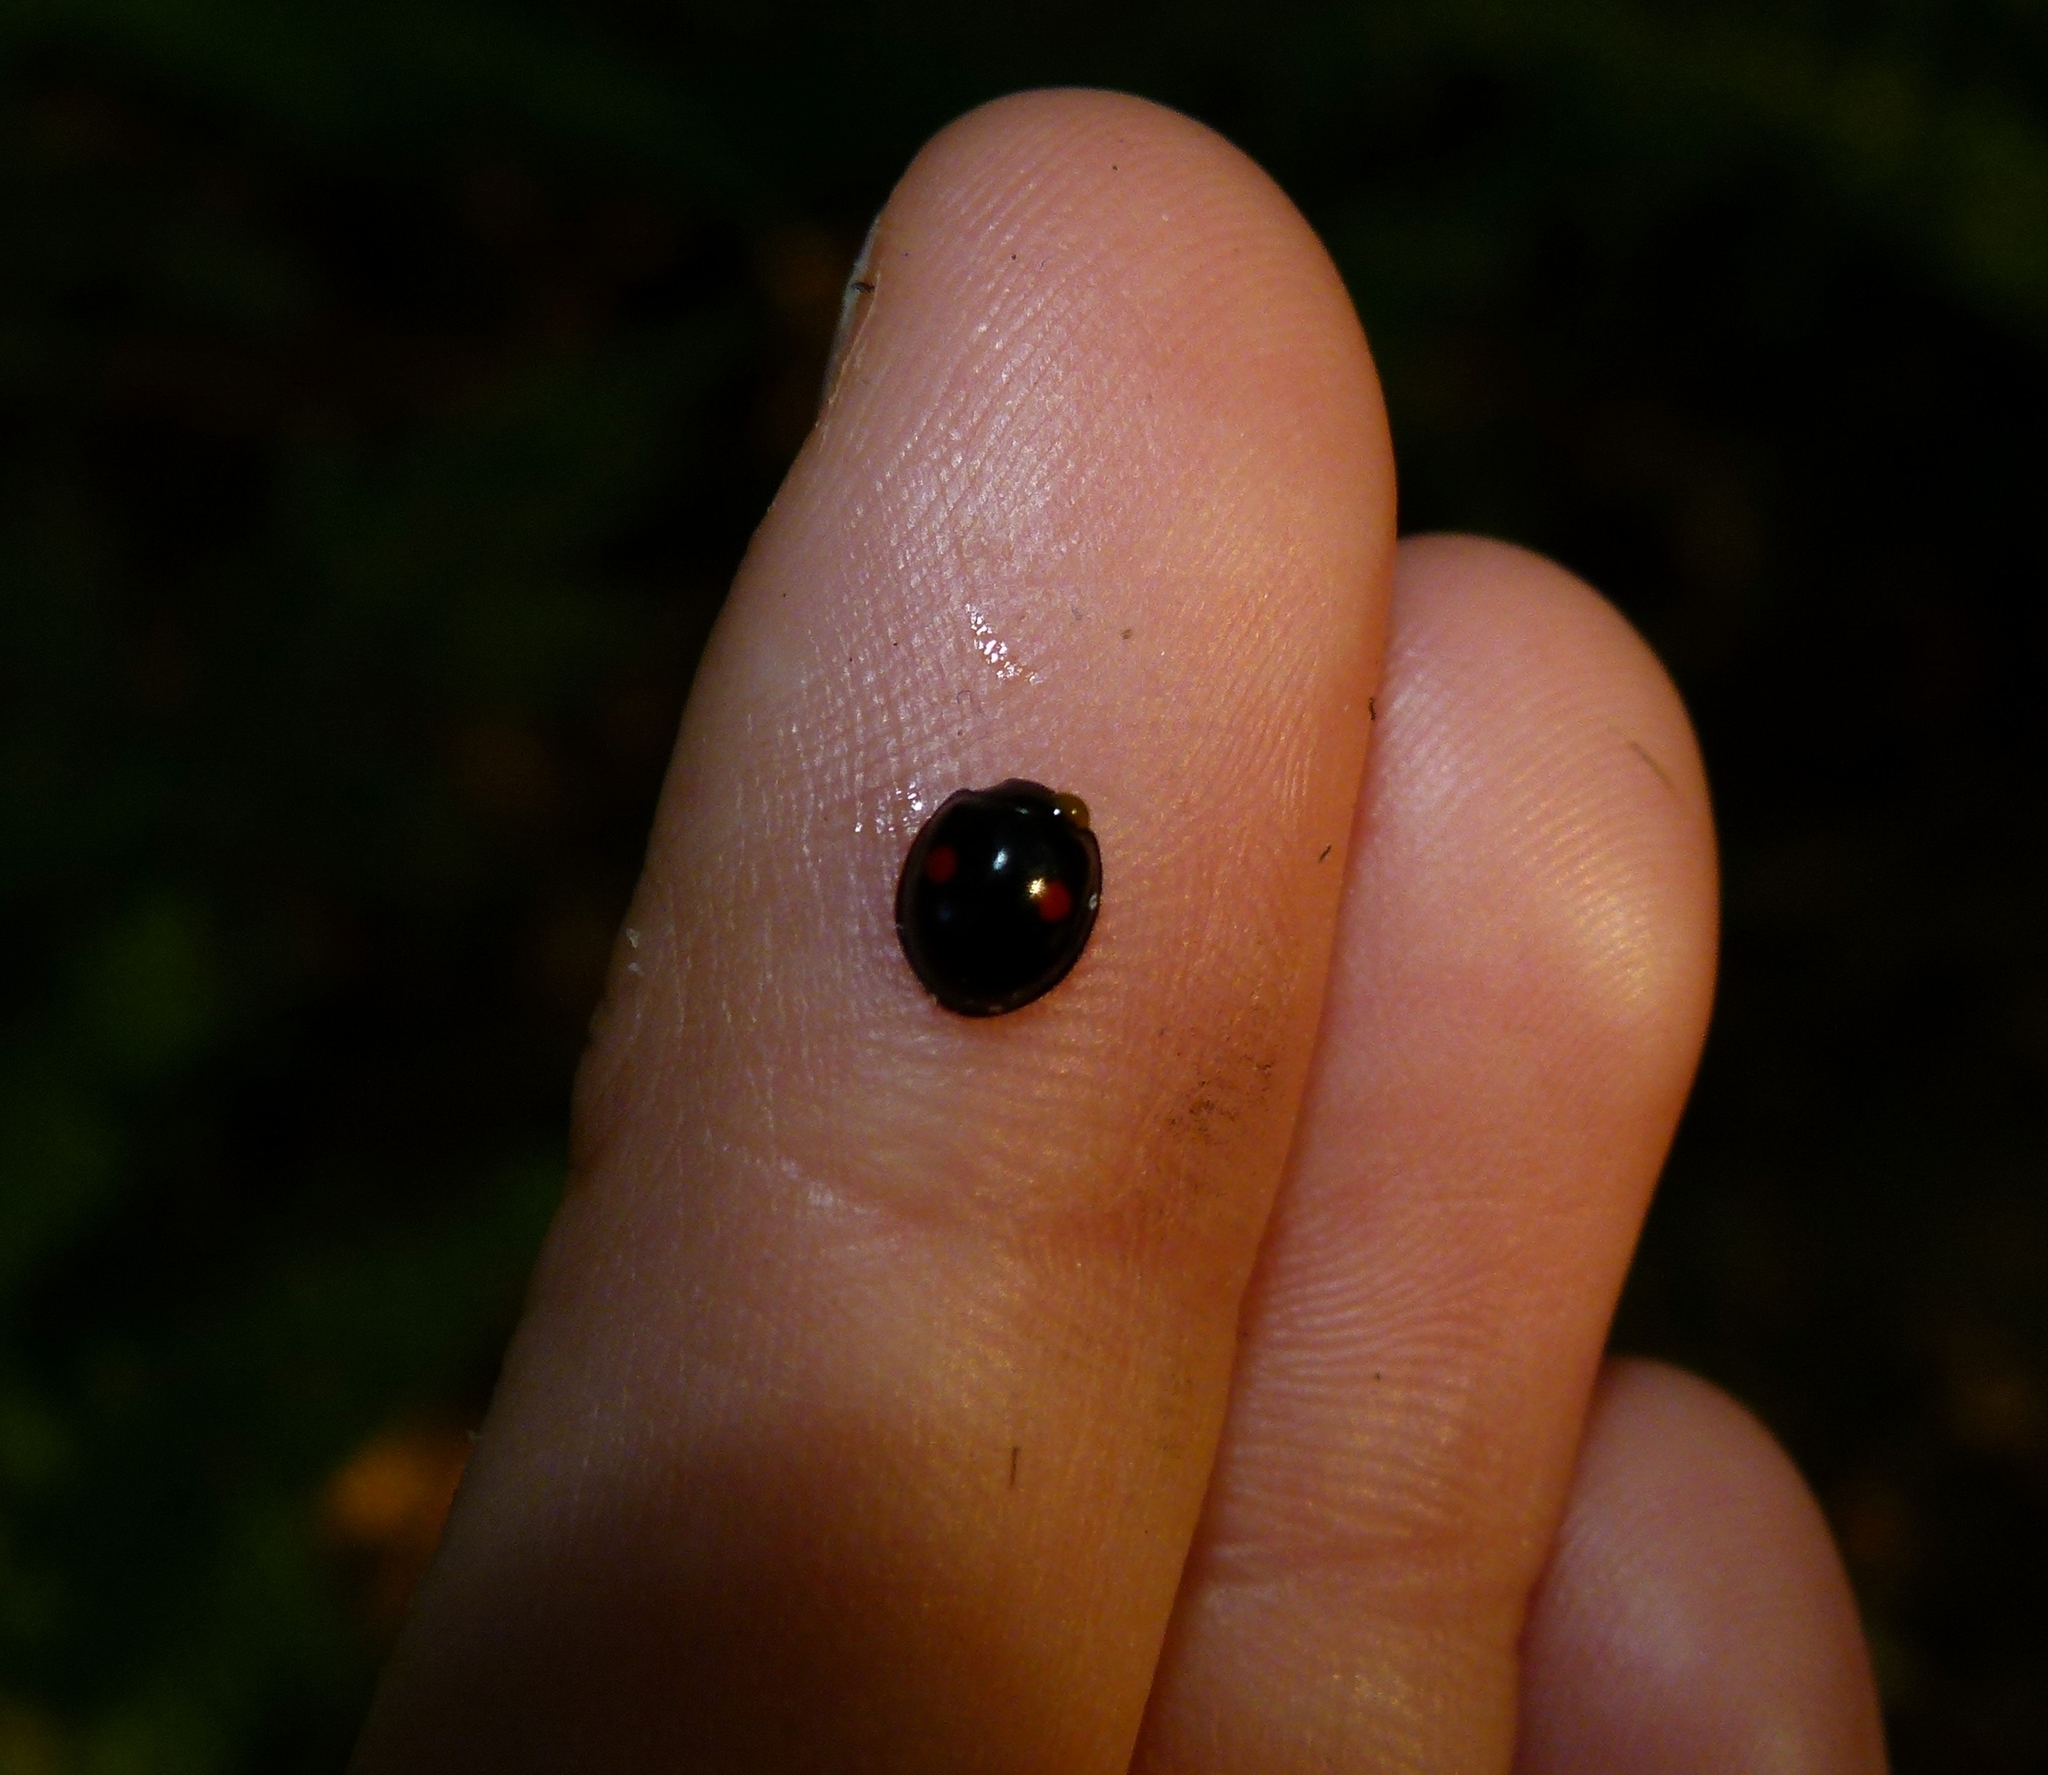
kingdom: Animalia
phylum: Arthropoda
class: Insecta
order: Coleoptera
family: Coccinellidae
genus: Chilocorus
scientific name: Chilocorus stigma
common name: Twicestabbed lady beetle
